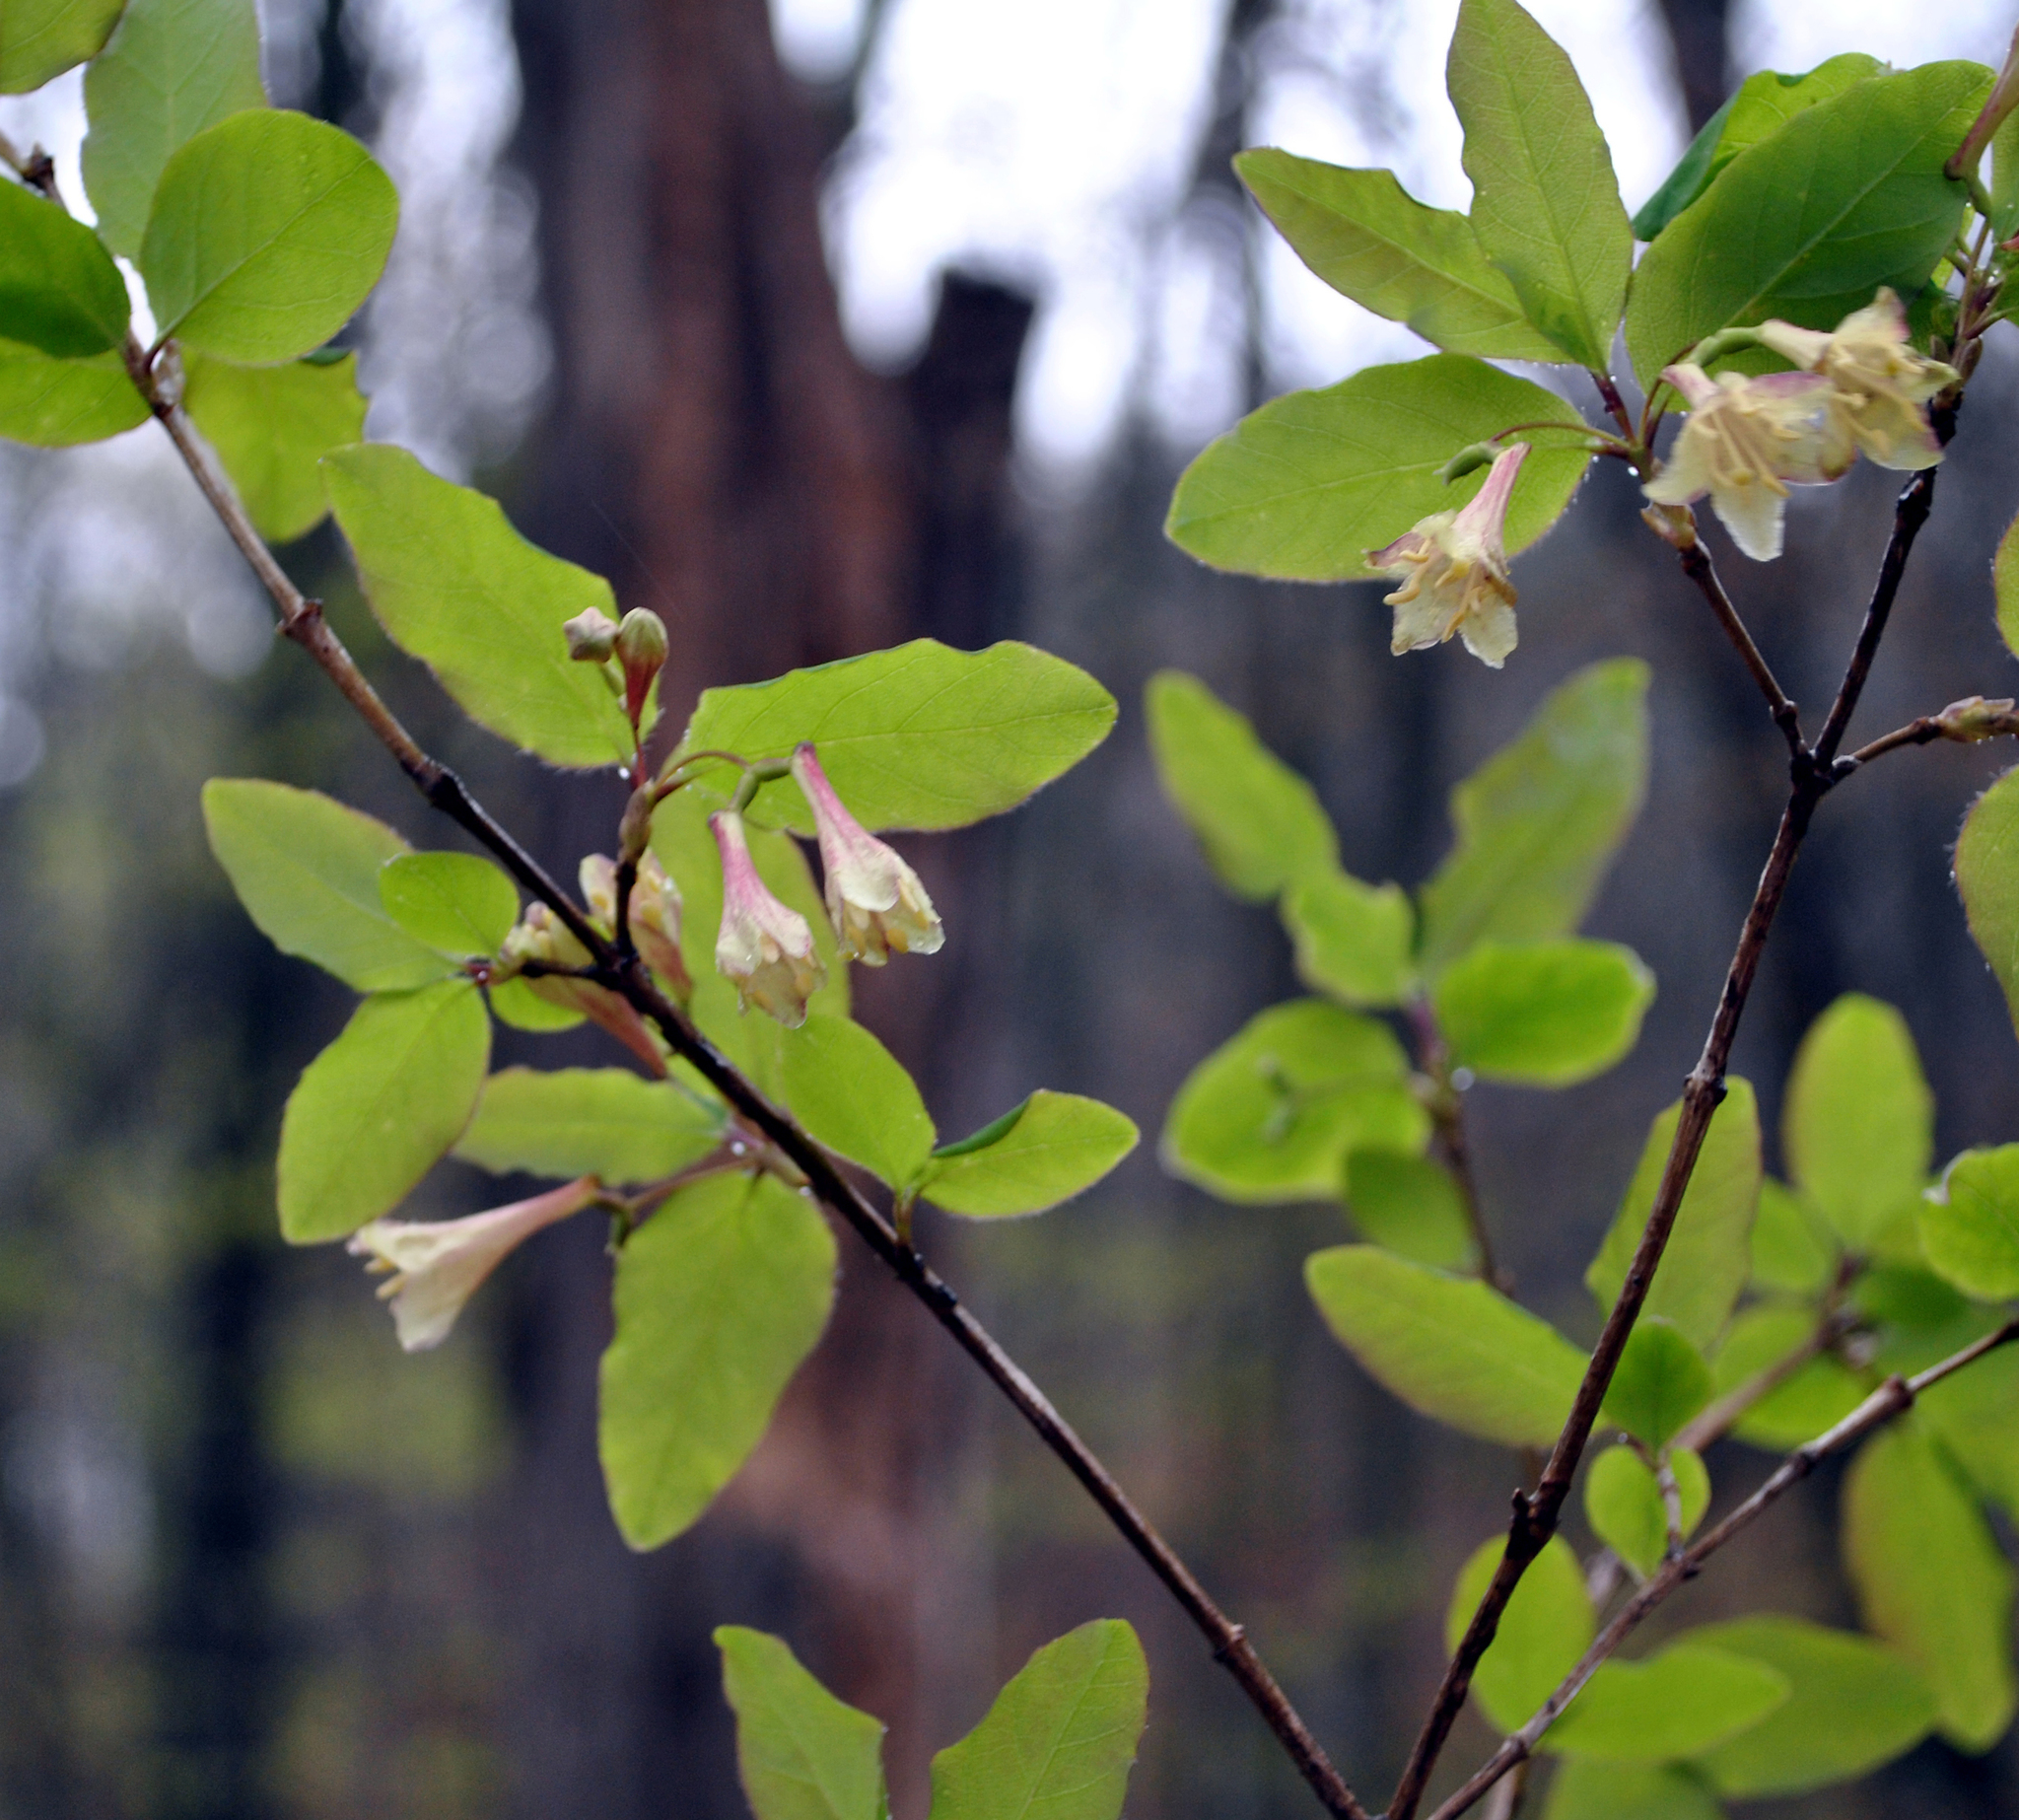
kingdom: Plantae
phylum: Tracheophyta
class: Magnoliopsida
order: Dipsacales
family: Caprifoliaceae
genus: Lonicera
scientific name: Lonicera canadensis
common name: American fly-honeysuckle
